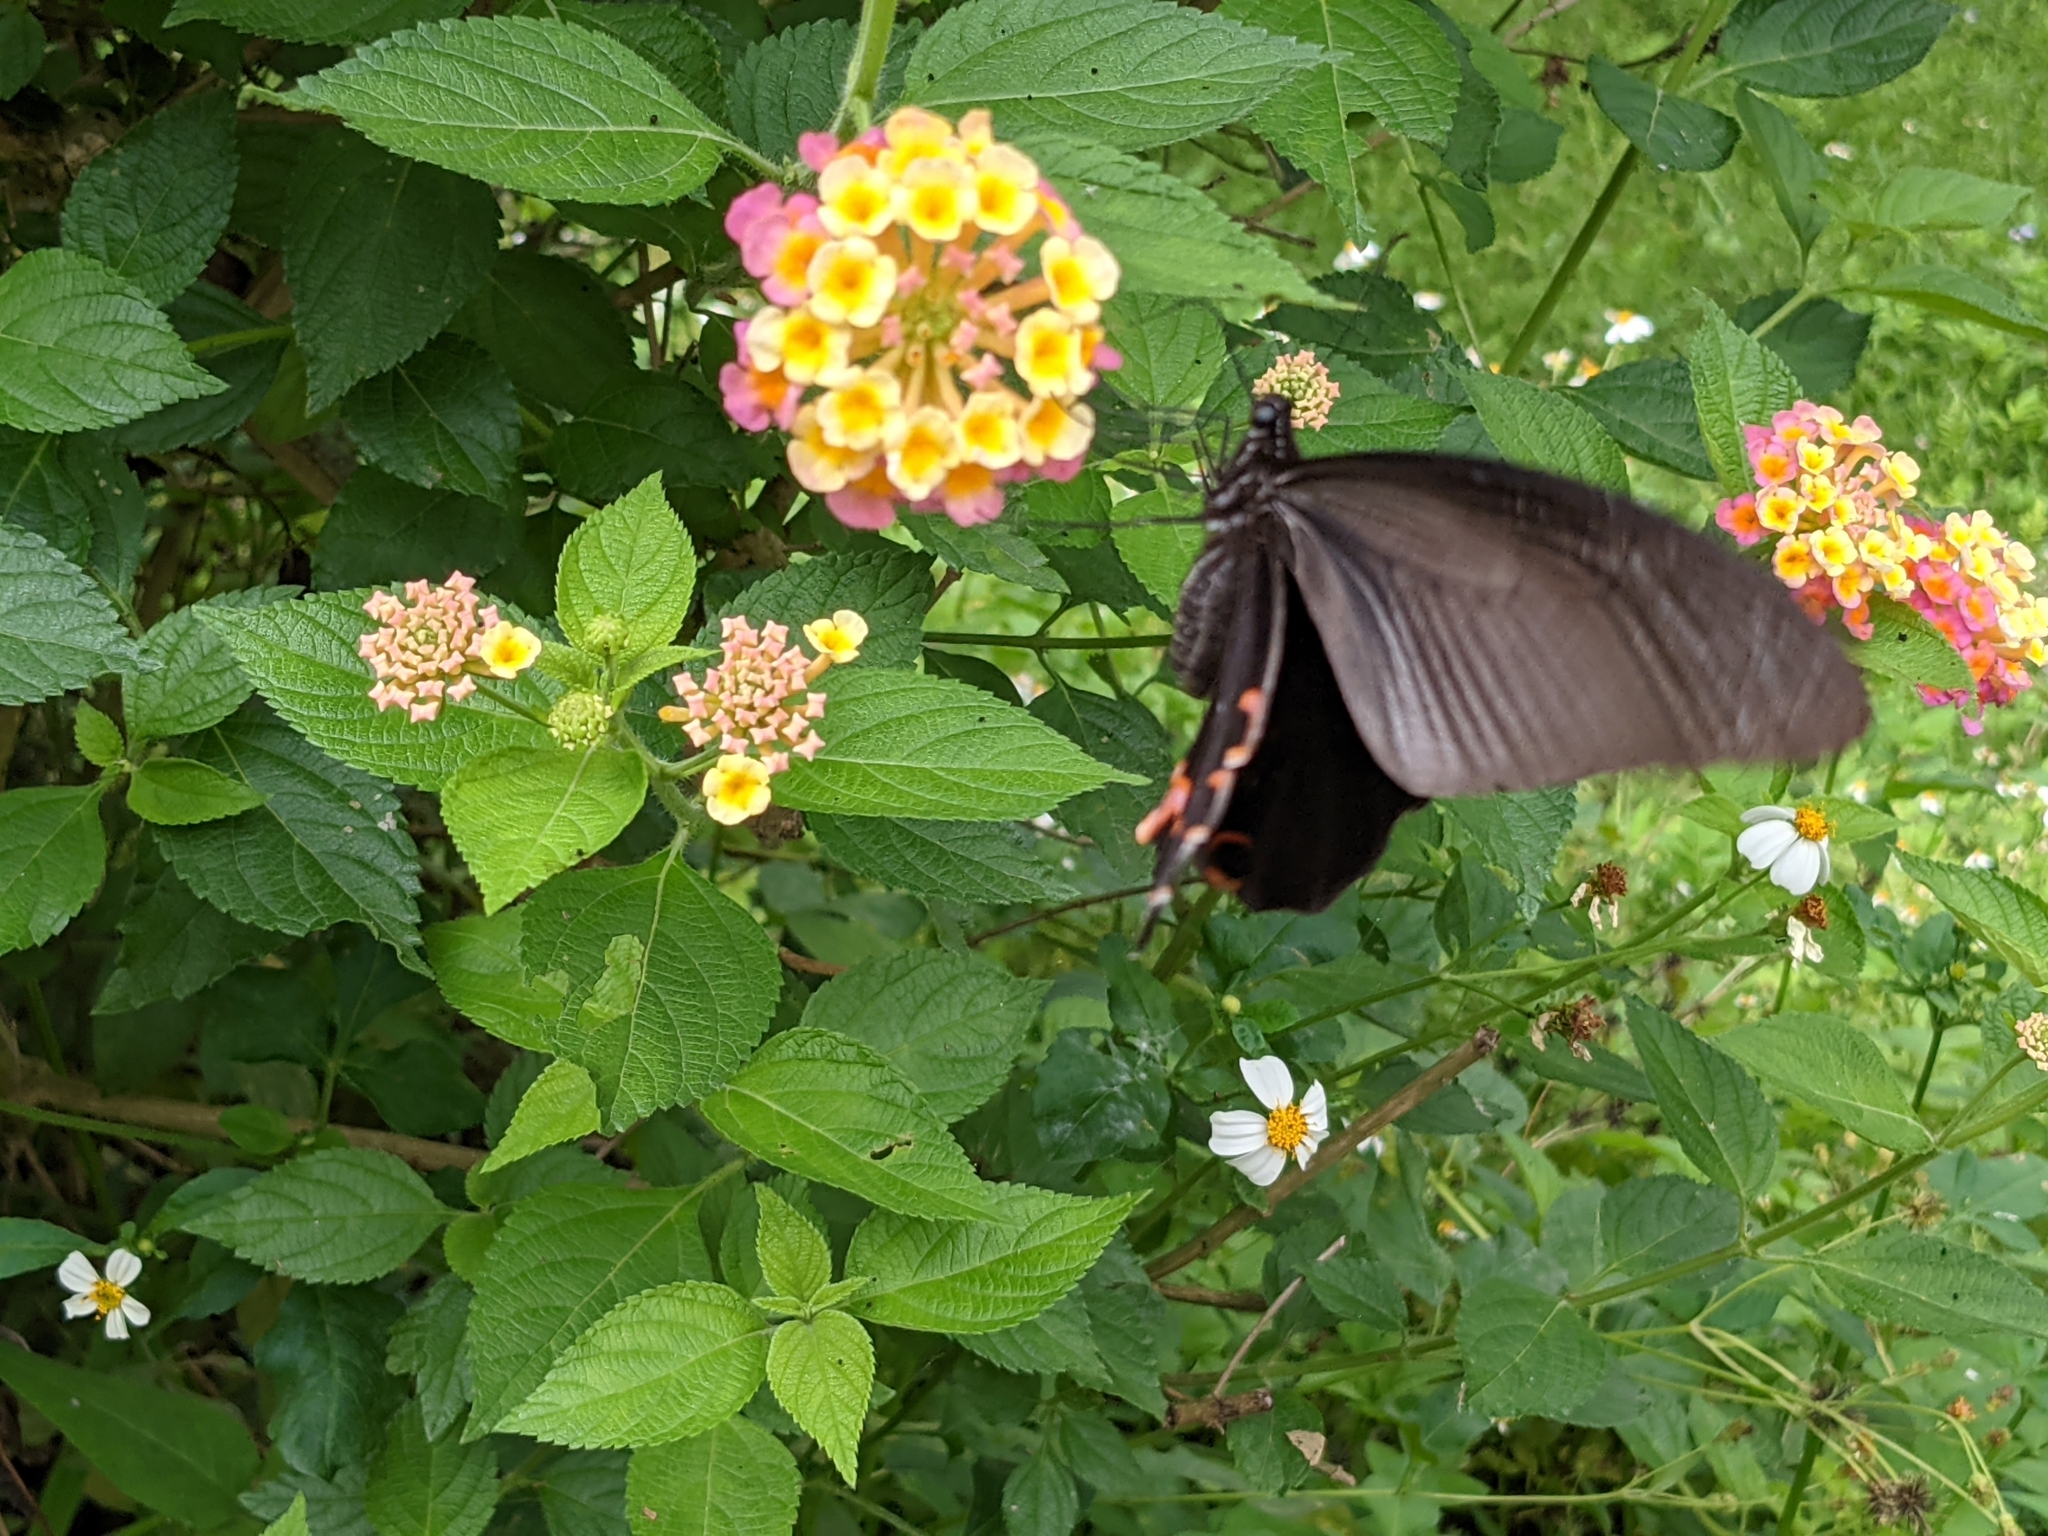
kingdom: Animalia
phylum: Arthropoda
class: Insecta
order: Lepidoptera
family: Papilionidae
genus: Papilio
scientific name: Papilio protenor
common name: Spangle
